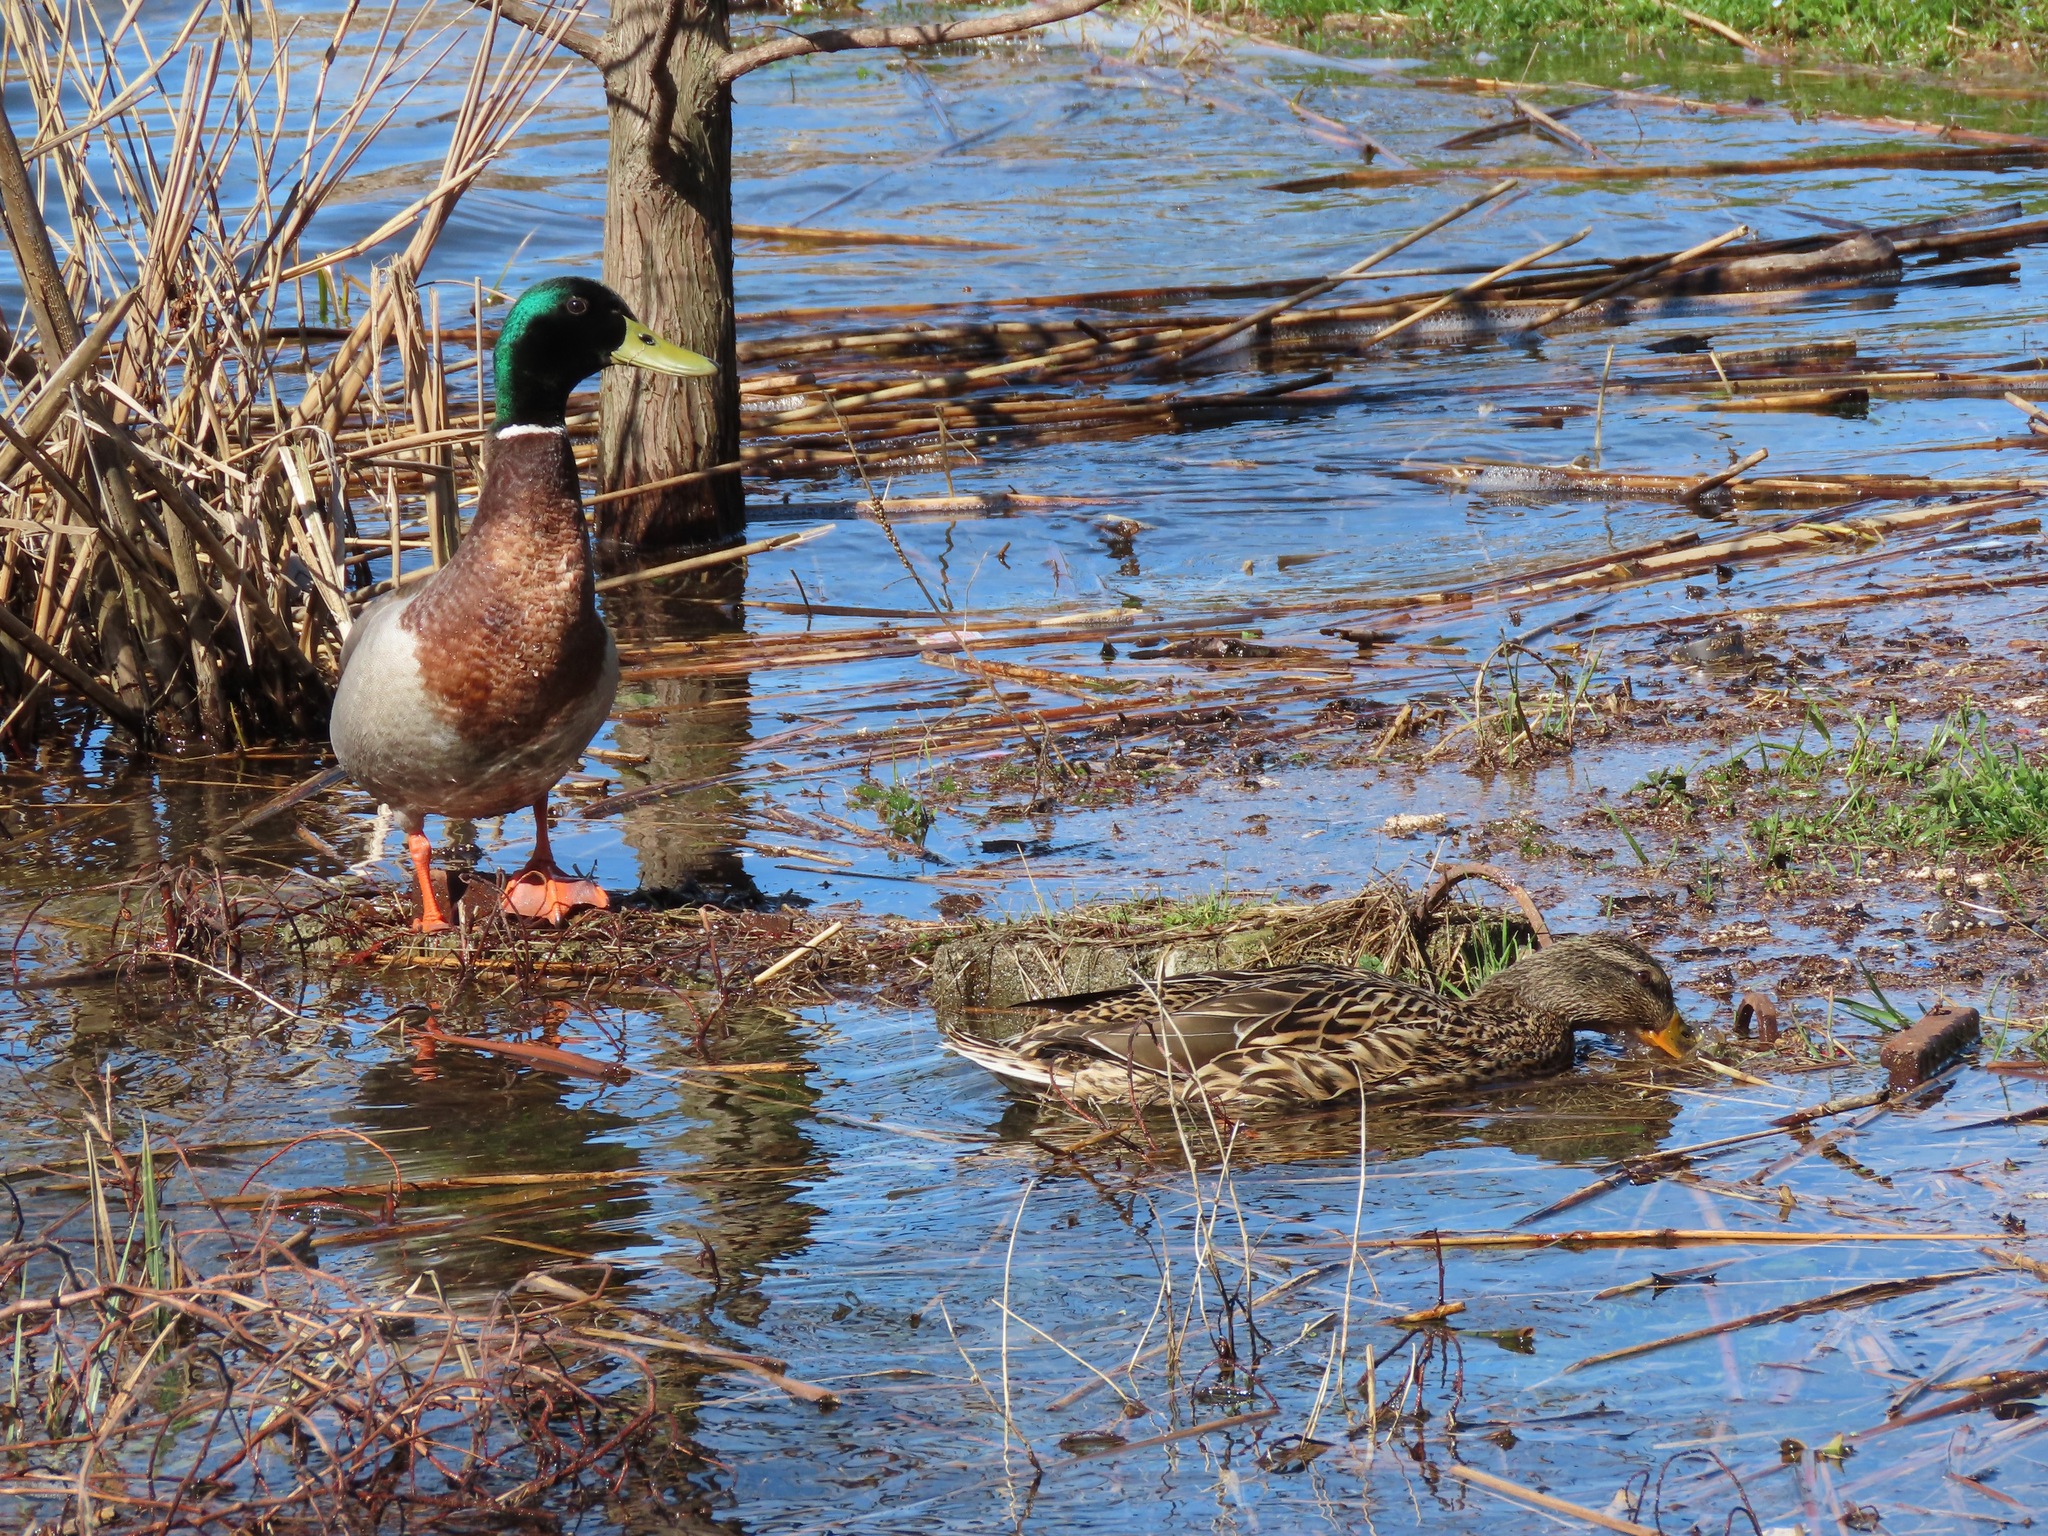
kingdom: Animalia
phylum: Chordata
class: Aves
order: Anseriformes
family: Anatidae
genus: Anas
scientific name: Anas platyrhynchos
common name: Mallard
